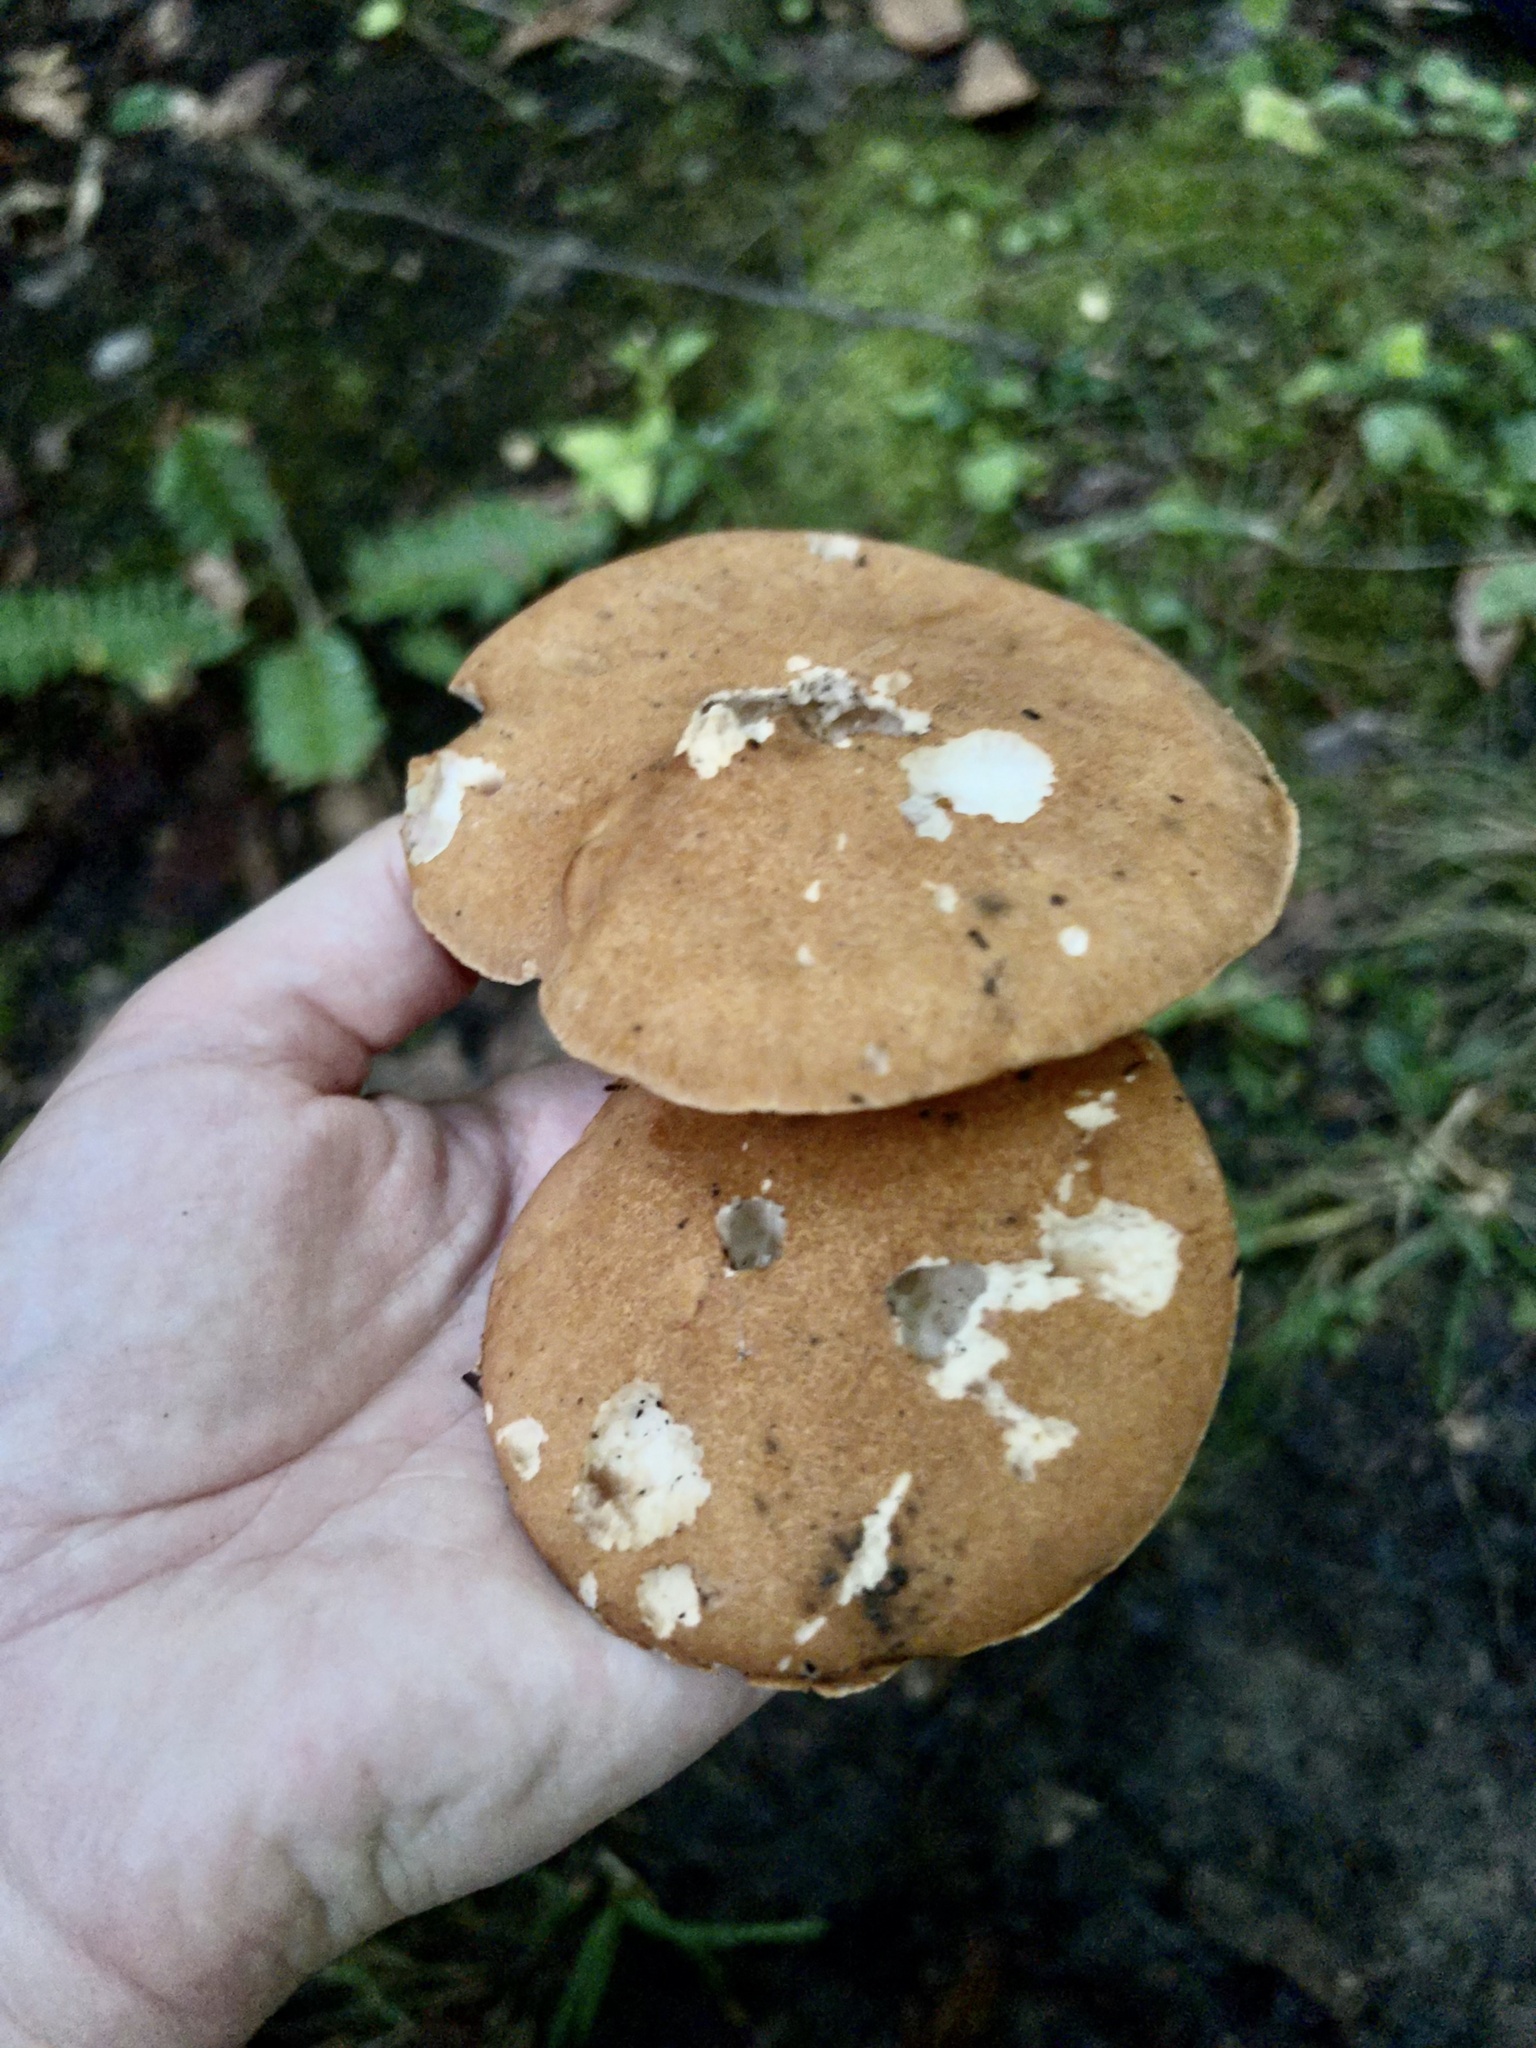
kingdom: Fungi
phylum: Basidiomycota
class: Agaricomycetes
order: Polyporales
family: Polyporaceae
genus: Polyporus
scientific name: Polyporus radicatus
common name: Rooting polypore
